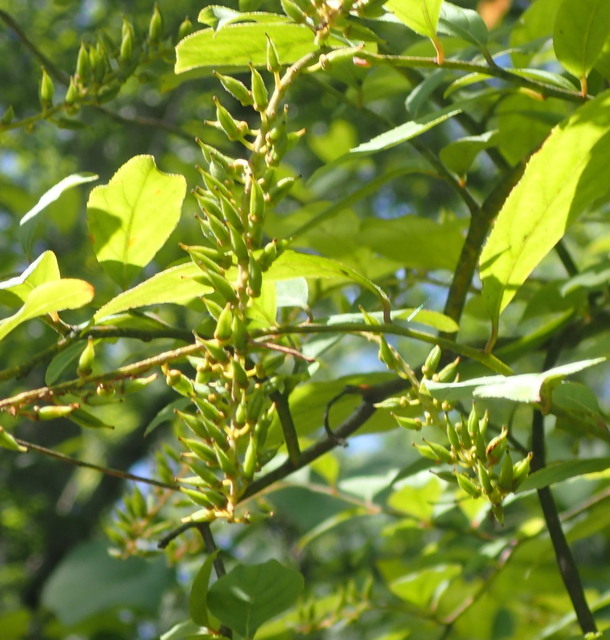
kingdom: Plantae
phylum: Tracheophyta
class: Magnoliopsida
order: Saxifragales
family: Iteaceae
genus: Itea
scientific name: Itea virginica
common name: Sweetspire
